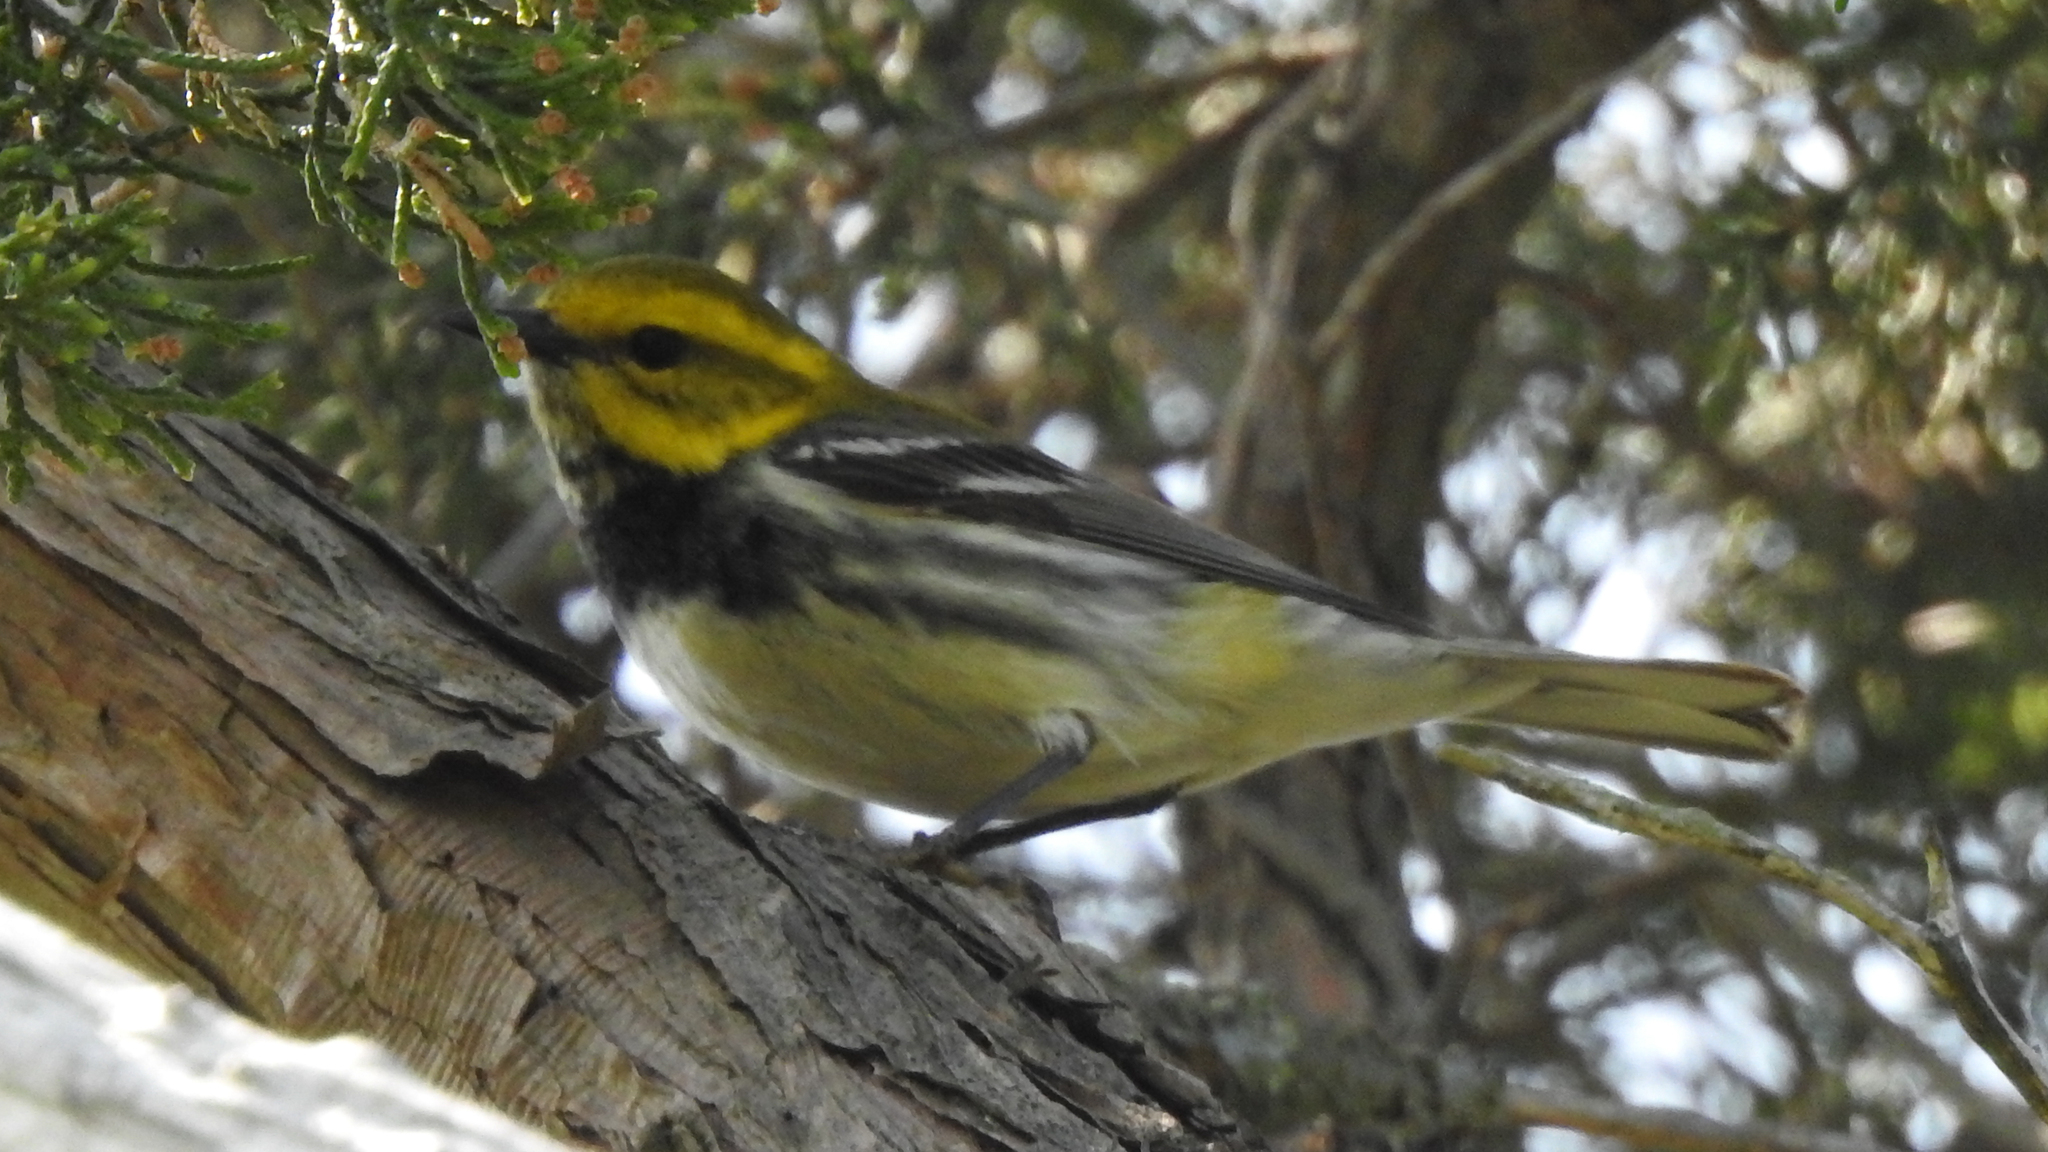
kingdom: Animalia
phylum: Chordata
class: Aves
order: Passeriformes
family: Parulidae
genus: Setophaga
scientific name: Setophaga virens
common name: Black-throated green warbler
